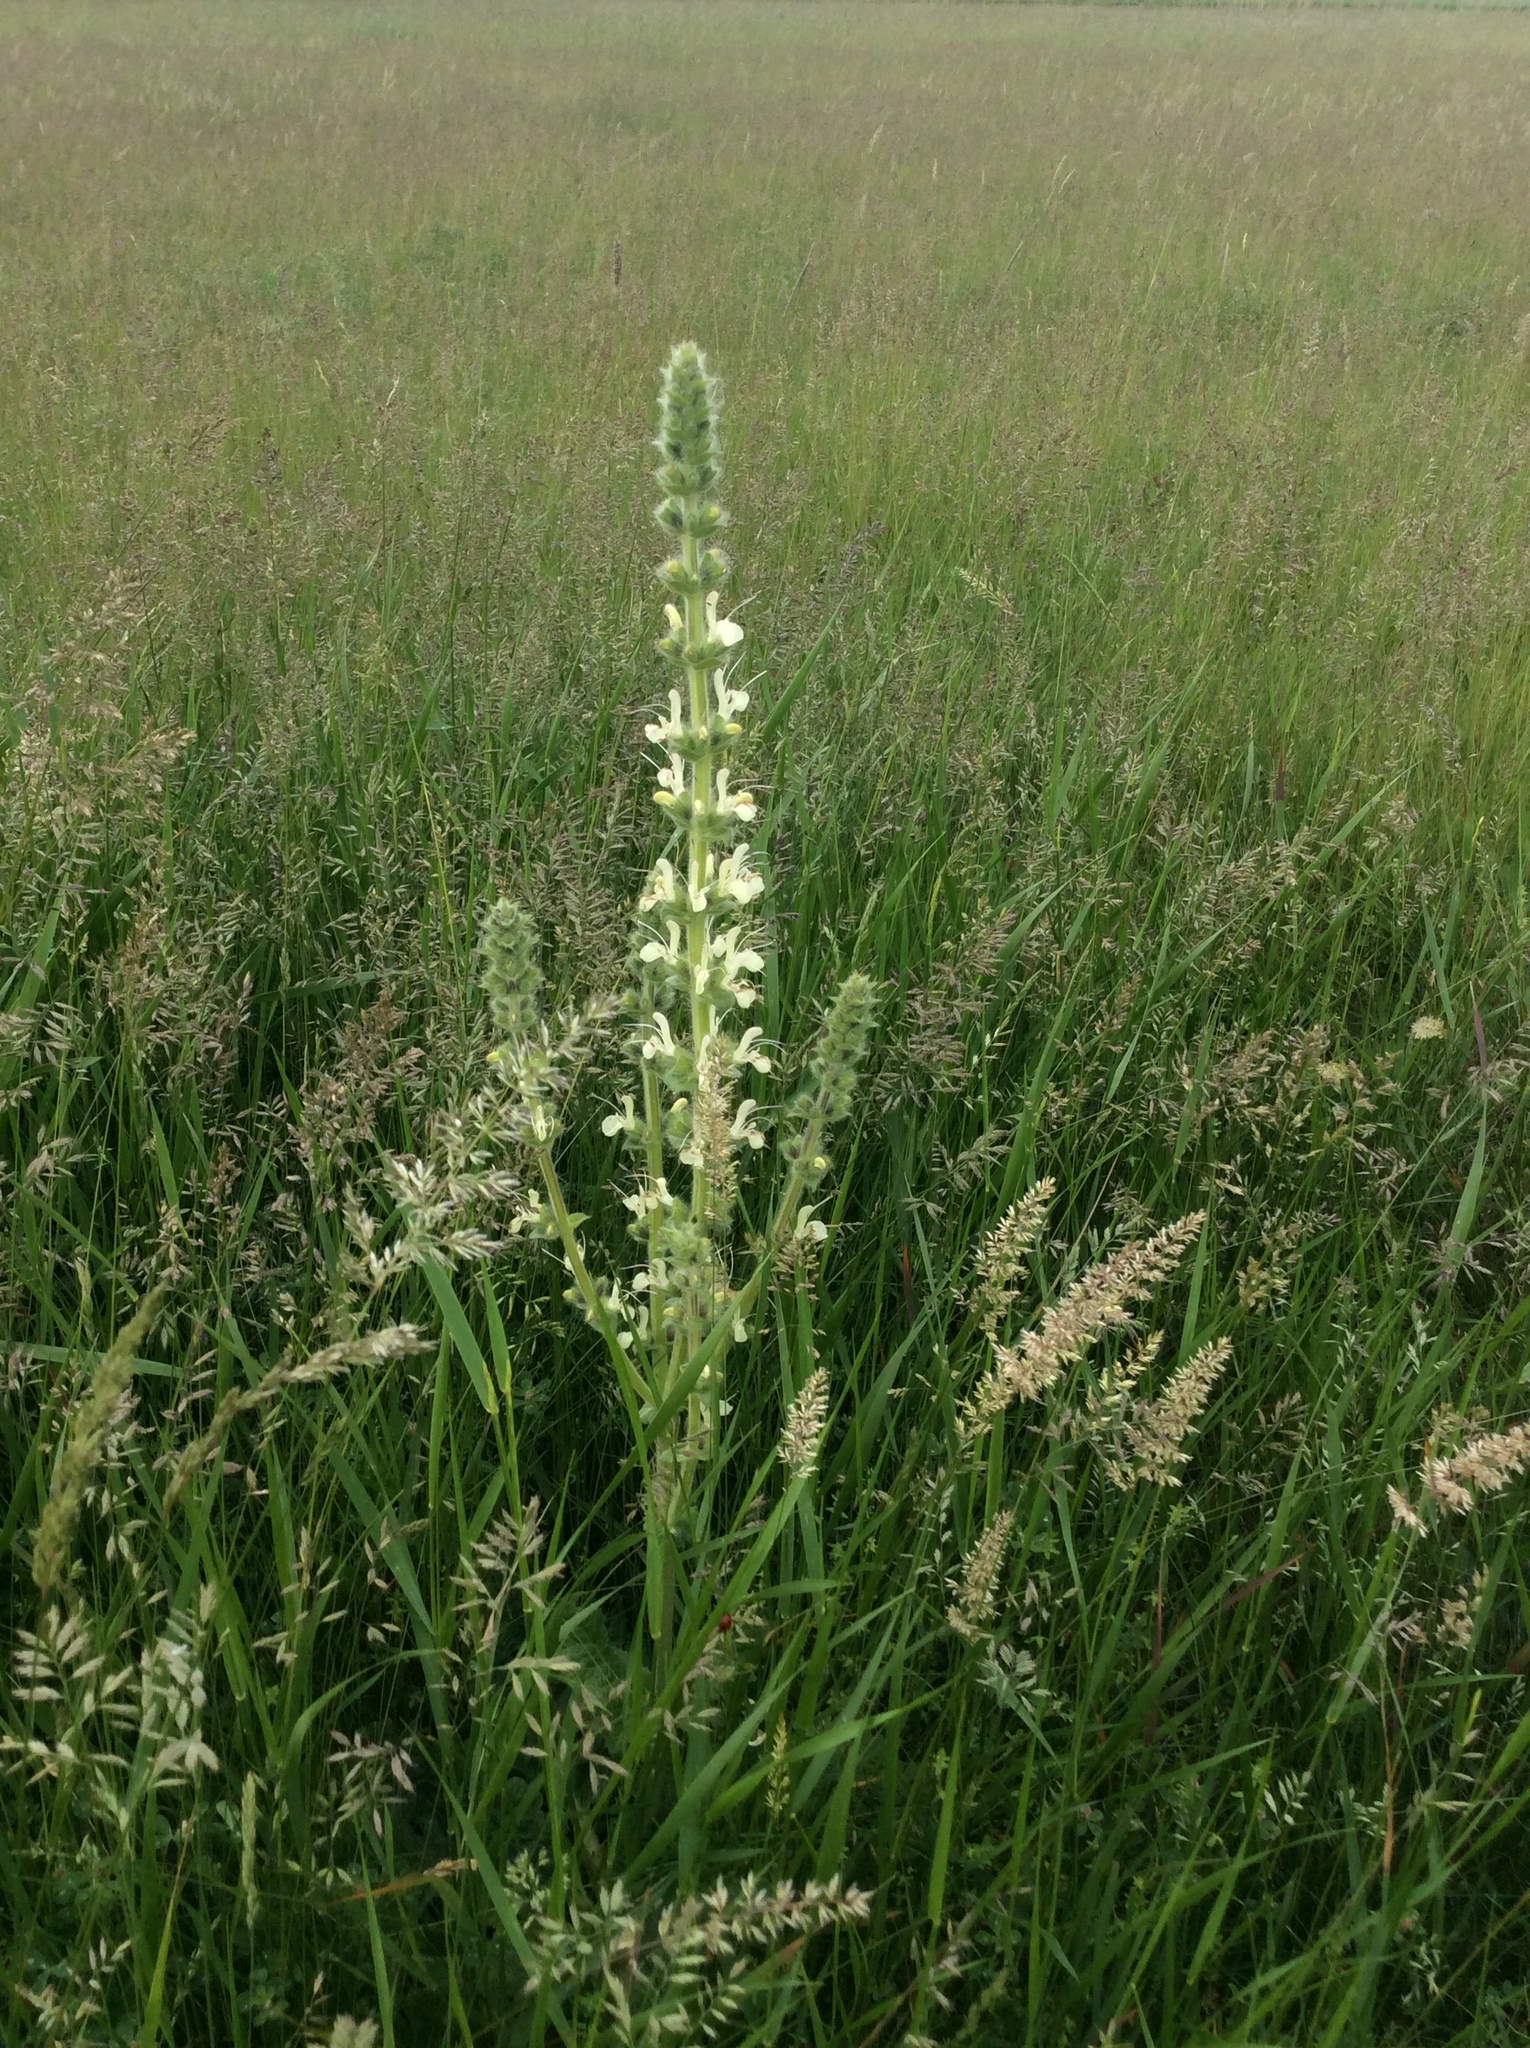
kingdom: Plantae
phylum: Tracheophyta
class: Magnoliopsida
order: Lamiales
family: Lamiaceae
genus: Salvia
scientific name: Salvia austriaca
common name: Austrian sage
